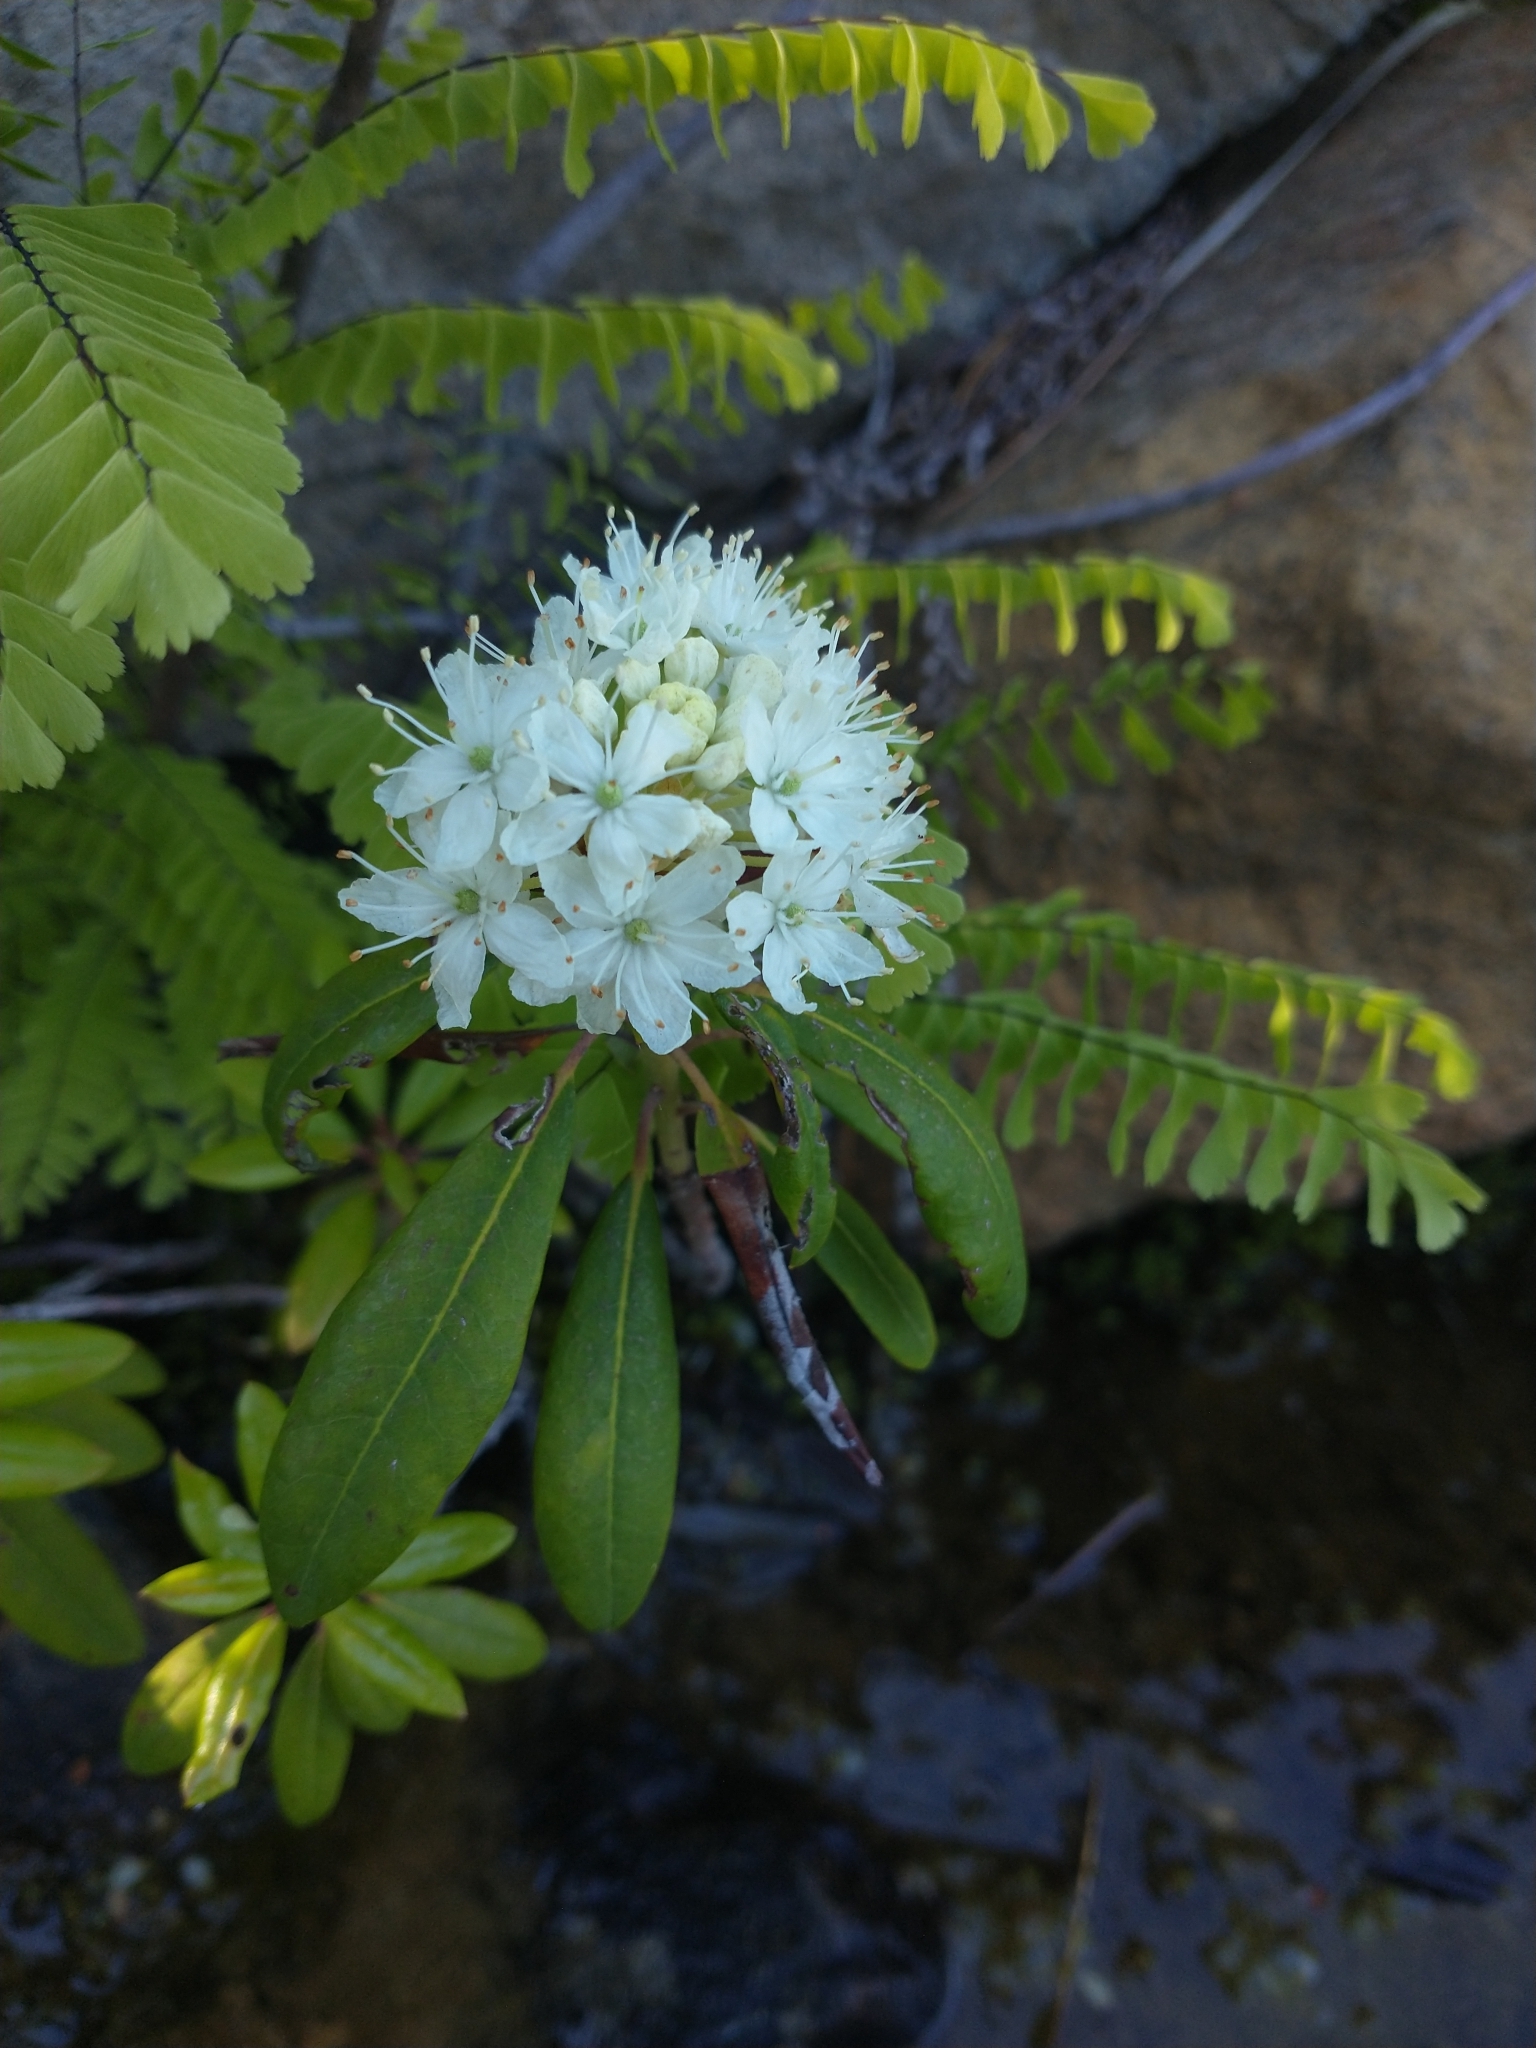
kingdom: Plantae
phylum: Tracheophyta
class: Magnoliopsida
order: Ericales
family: Ericaceae
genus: Rhododendron
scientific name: Rhododendron columbianum
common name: Western labrador tea
